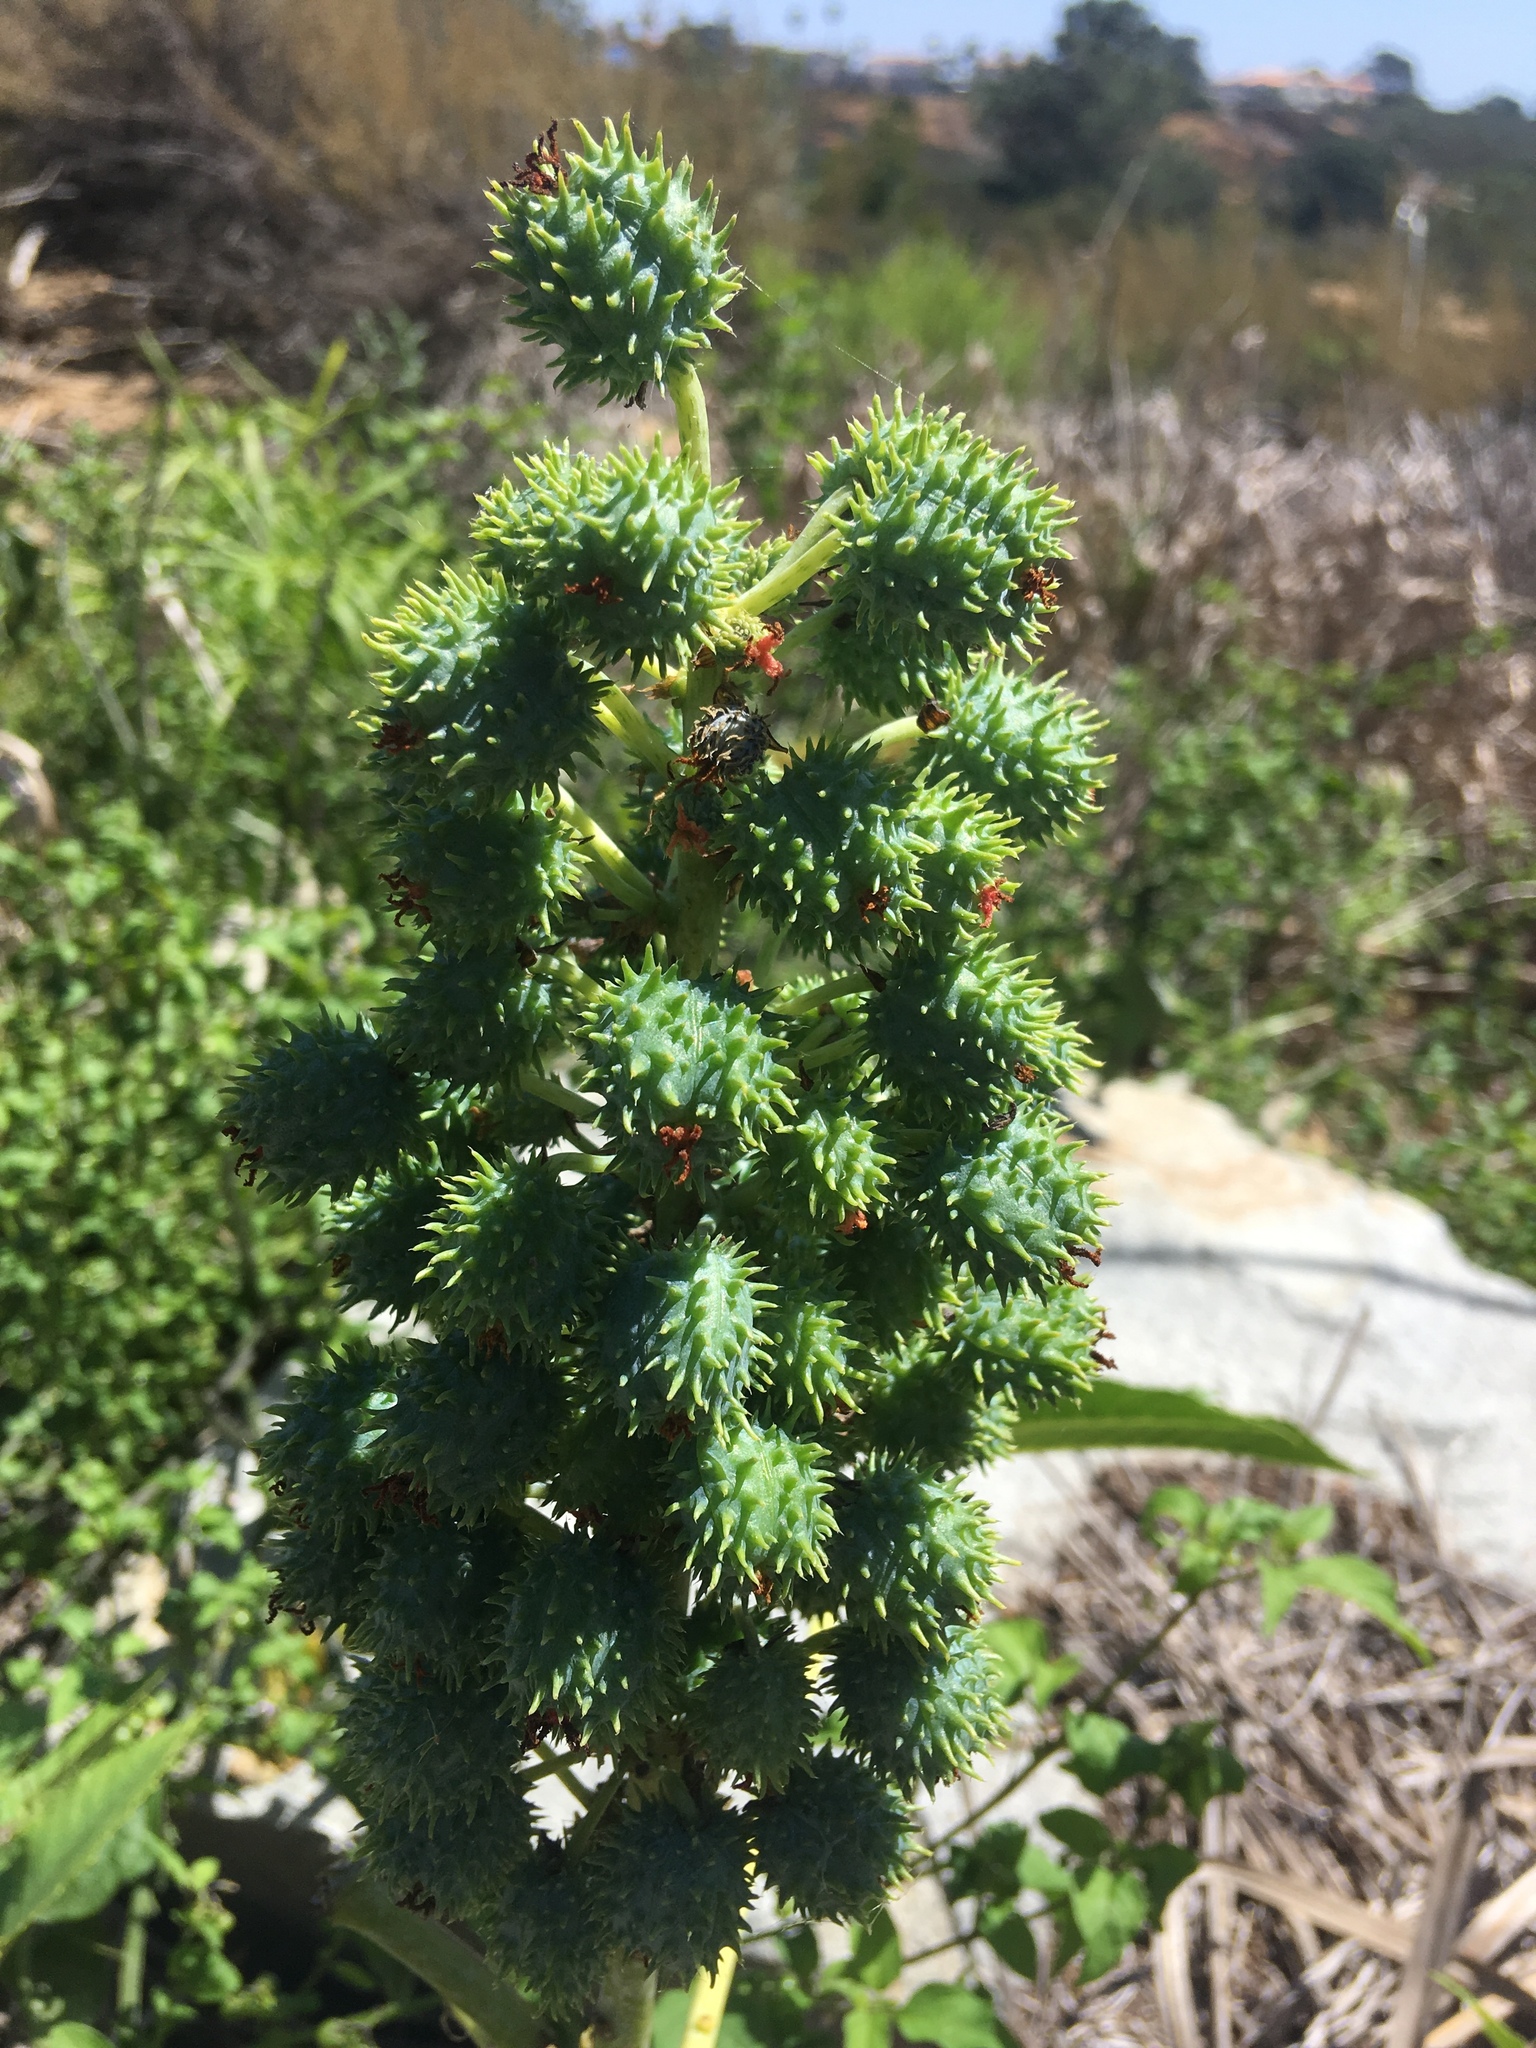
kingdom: Plantae
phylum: Tracheophyta
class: Magnoliopsida
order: Malpighiales
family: Euphorbiaceae
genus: Ricinus
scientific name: Ricinus communis
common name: Castor-oil-plant
